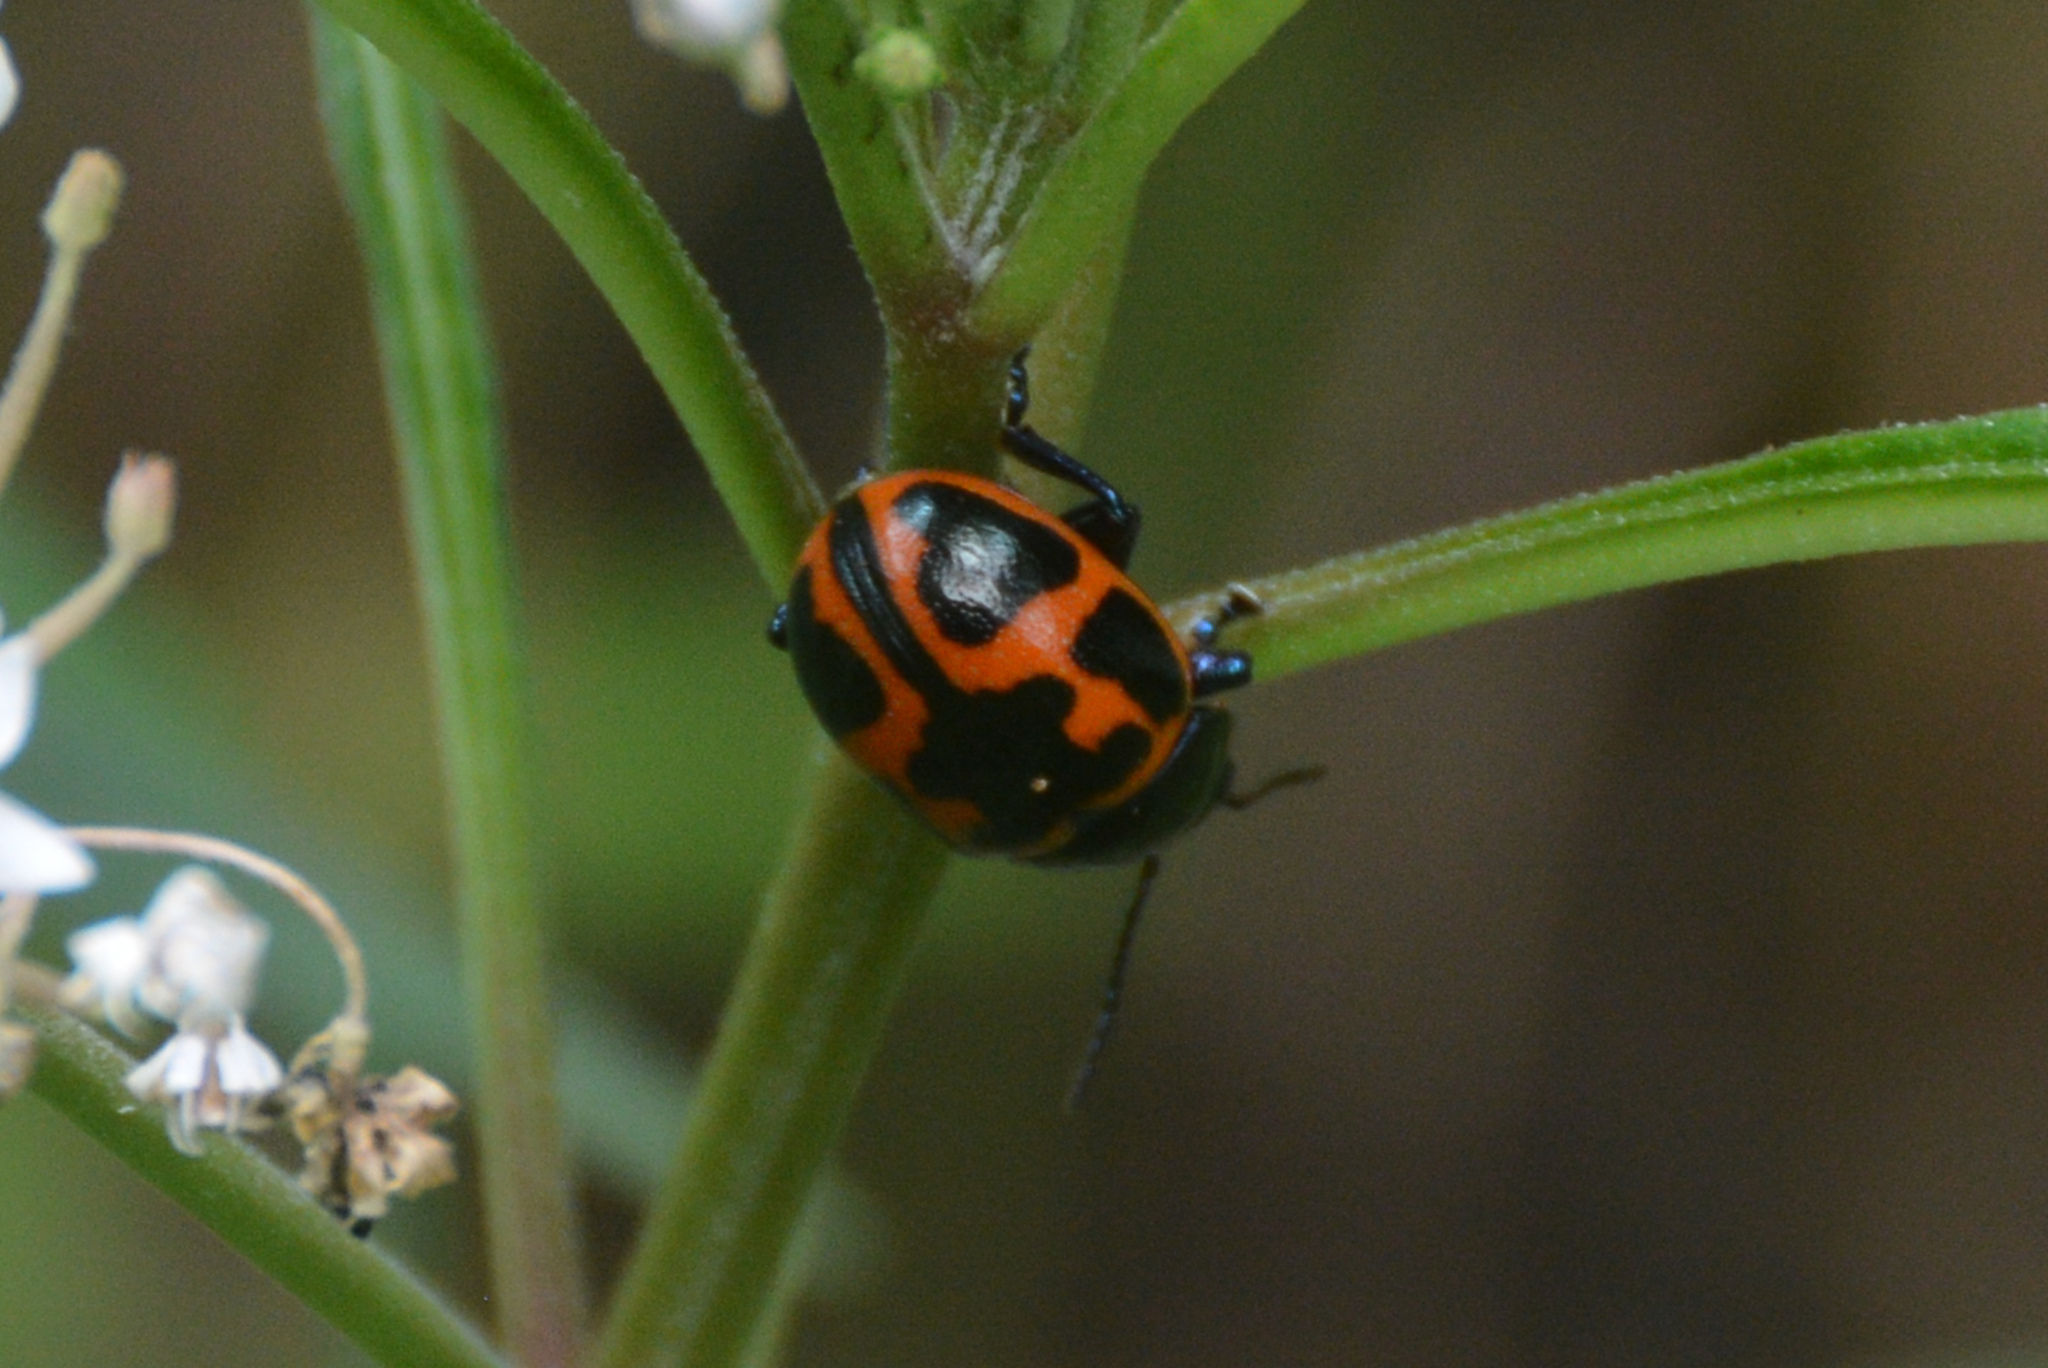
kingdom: Animalia
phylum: Arthropoda
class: Insecta
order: Coleoptera
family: Chrysomelidae
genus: Labidomera
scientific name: Labidomera clivicollis
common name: Swamp milkweed leaf beetle
